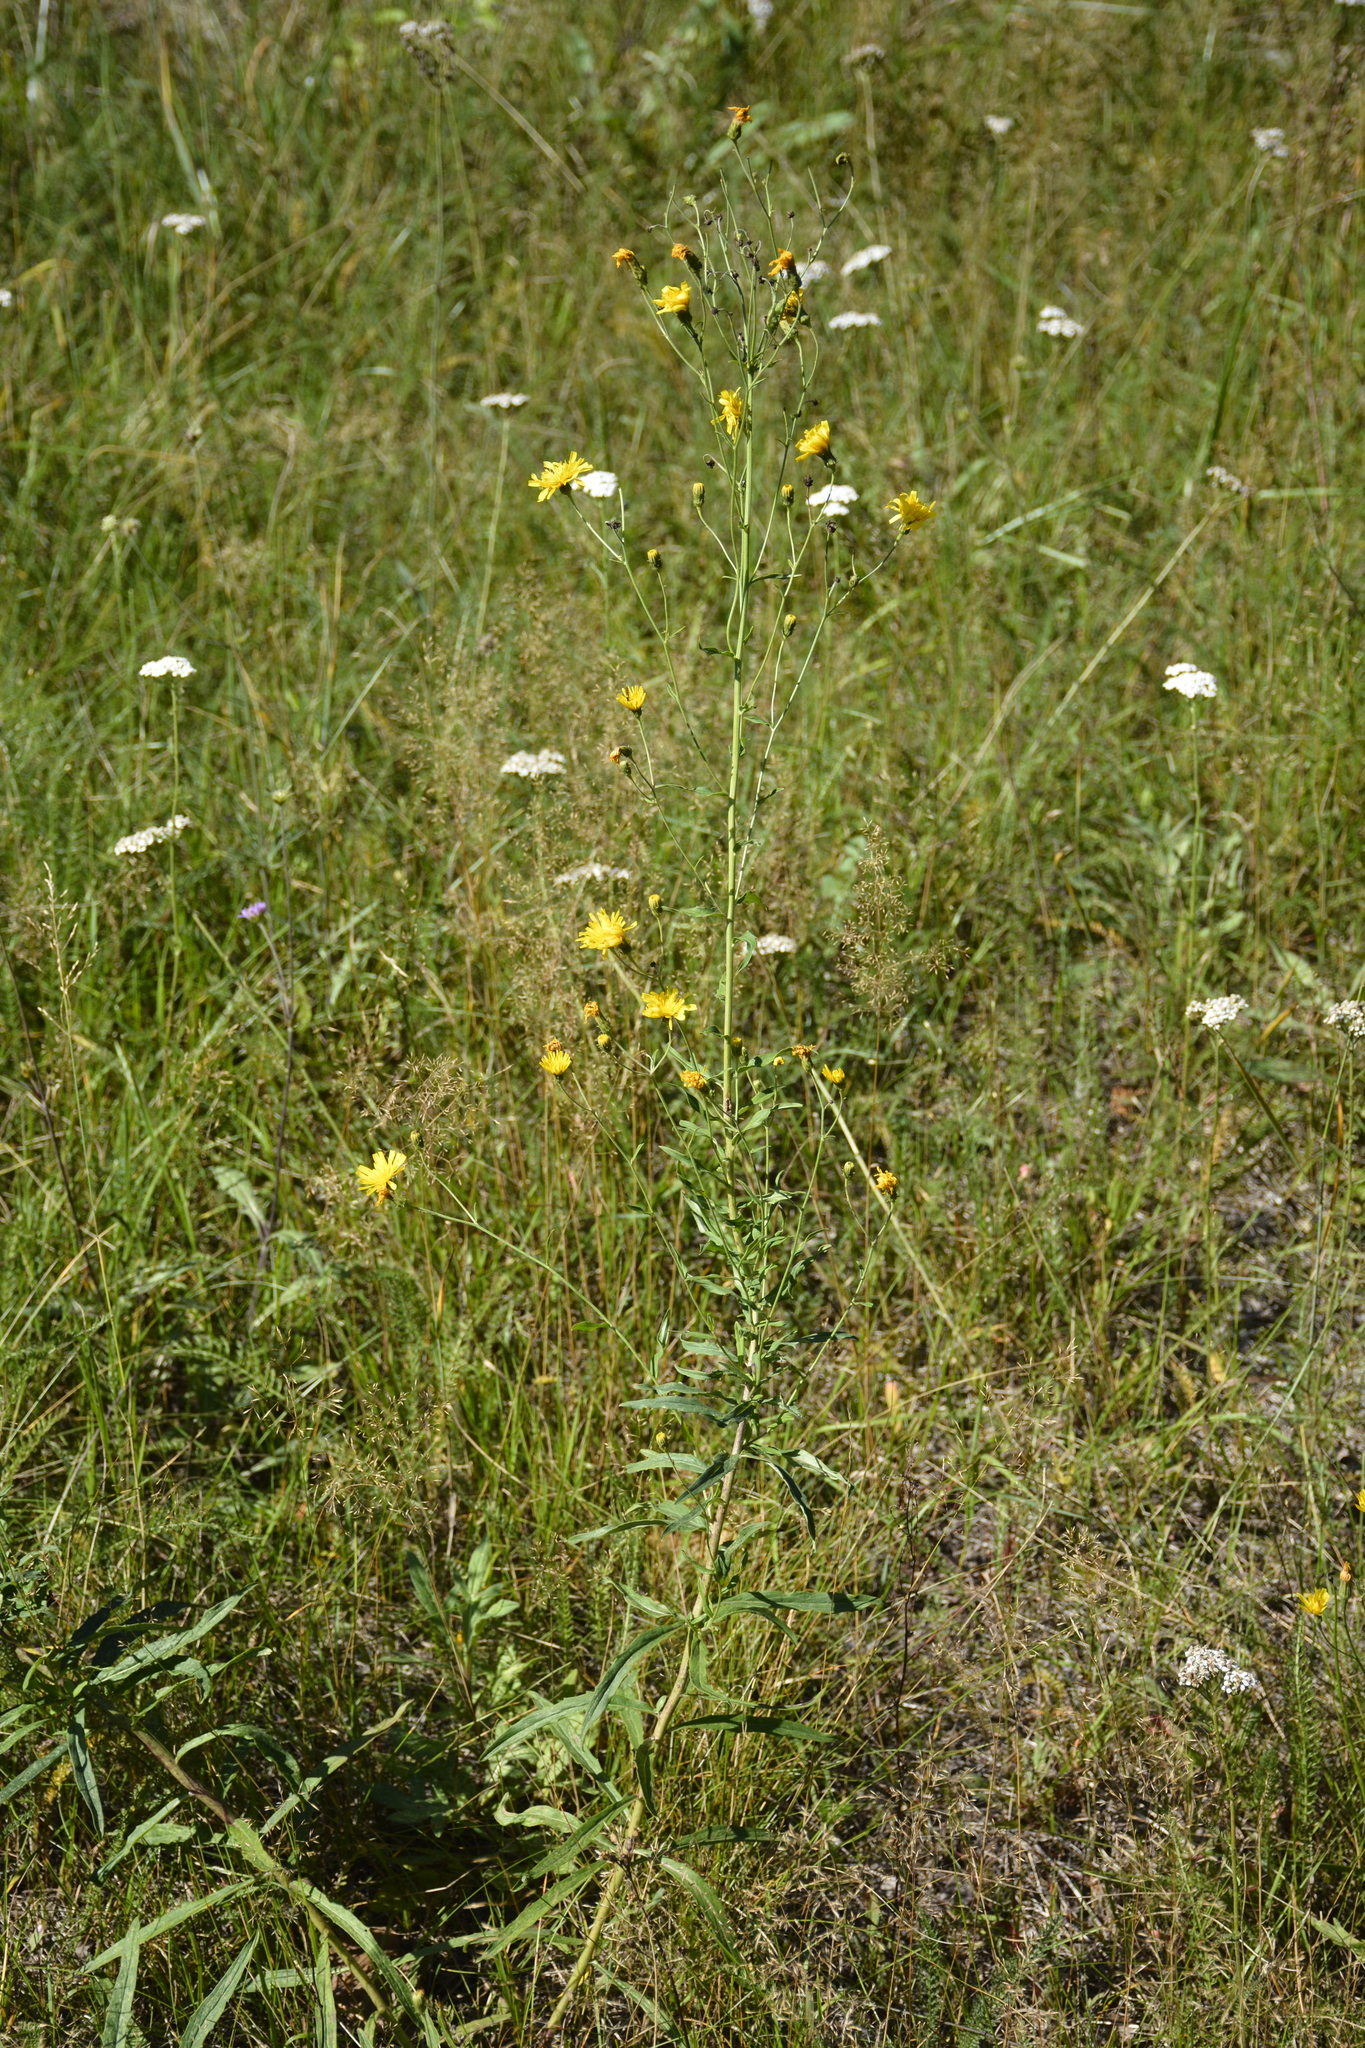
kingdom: Plantae
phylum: Tracheophyta
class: Magnoliopsida
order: Asterales
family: Asteraceae
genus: Hieracium
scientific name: Hieracium umbellatum
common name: Northern hawkweed
